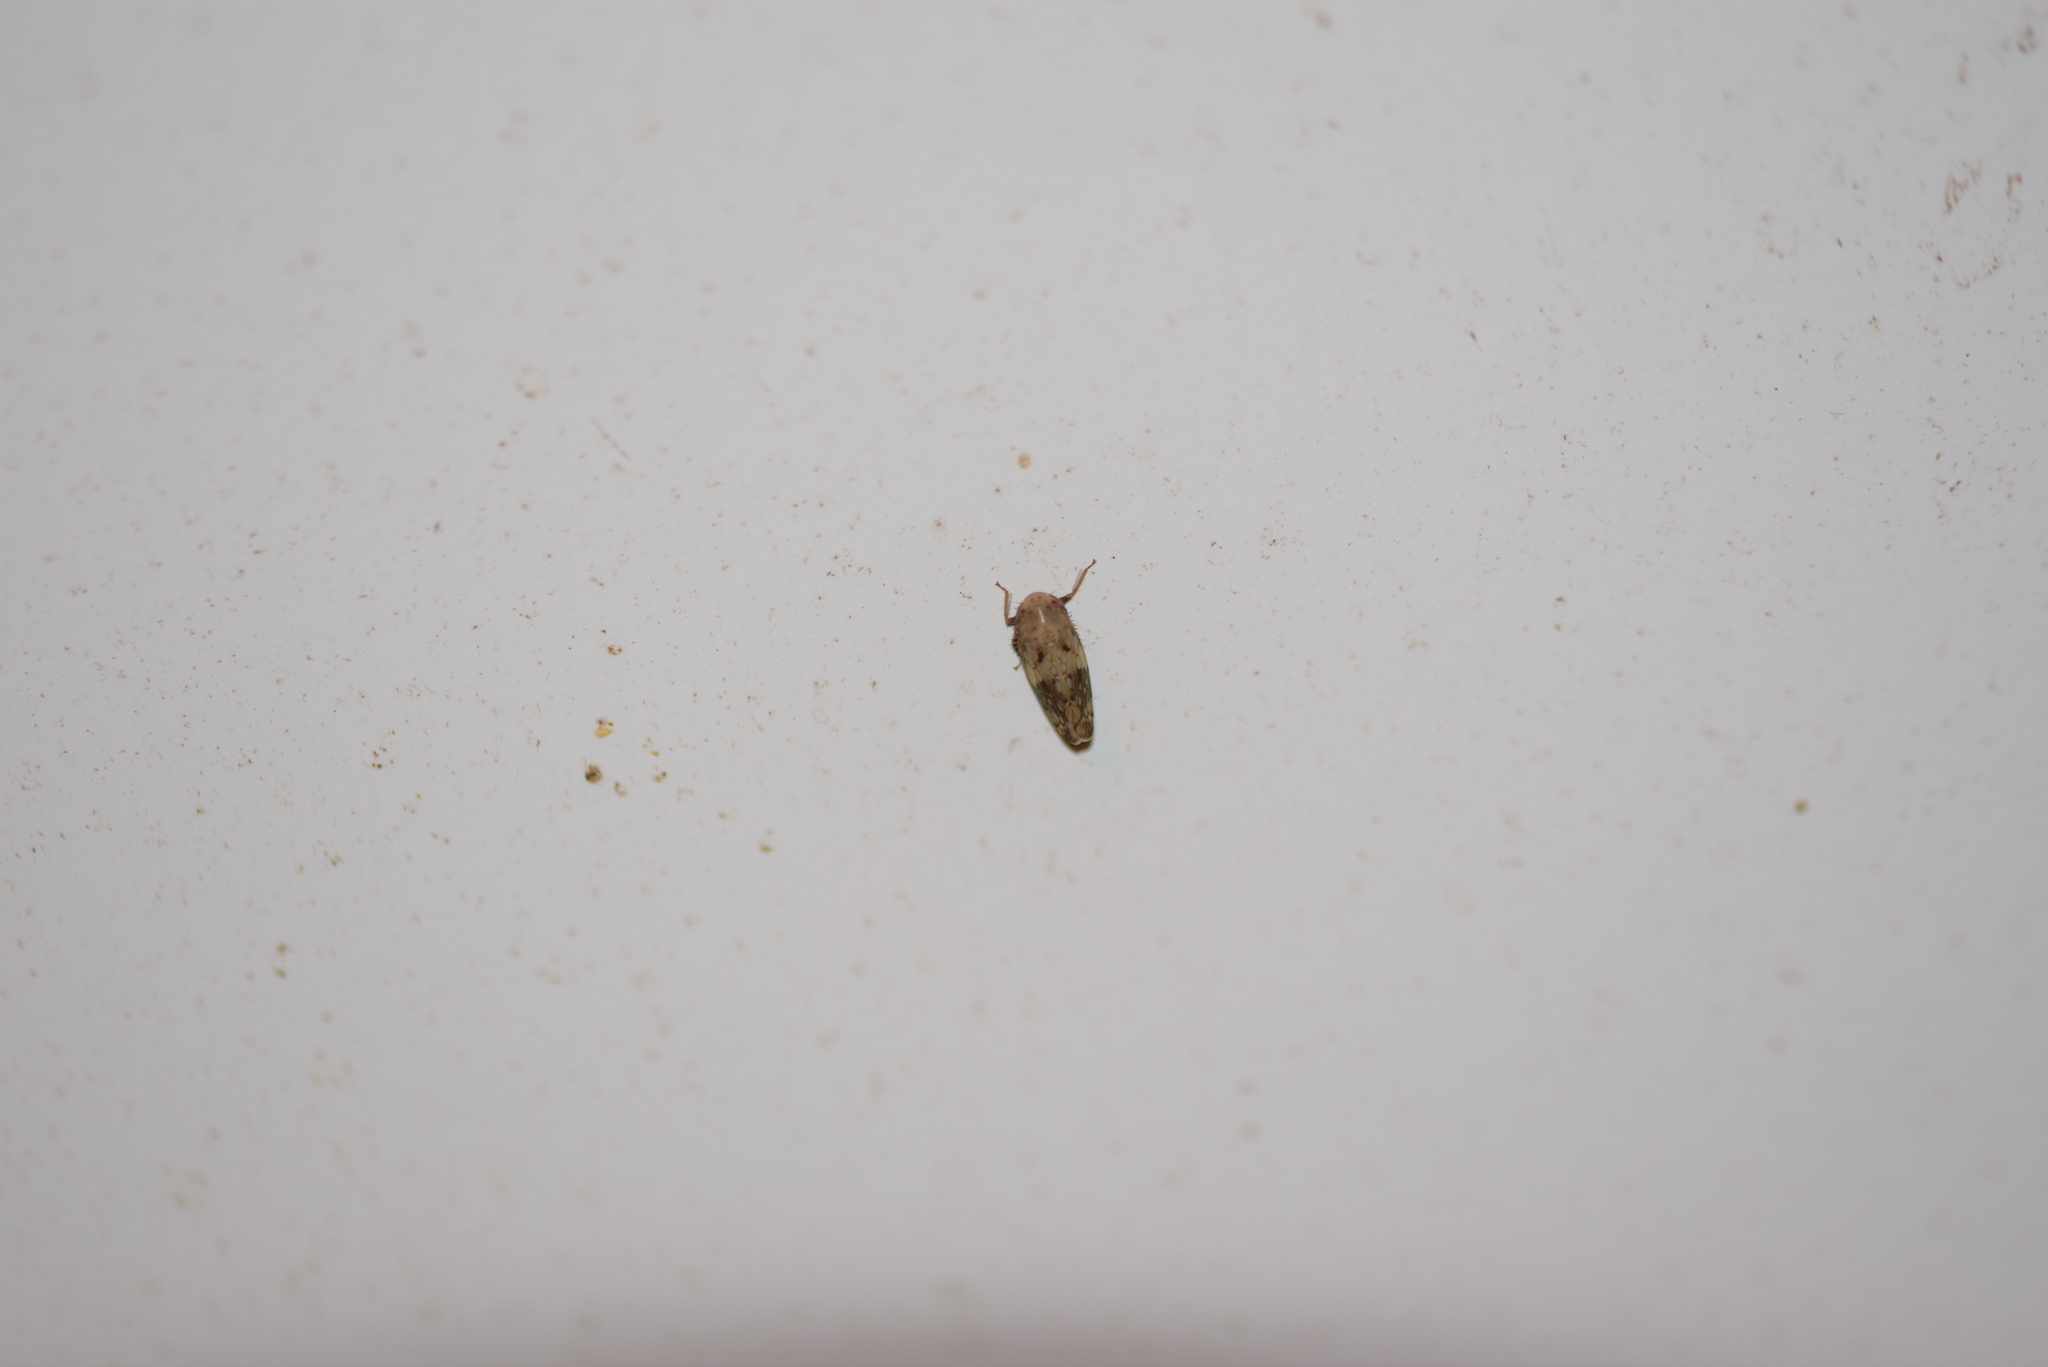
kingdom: Animalia
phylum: Arthropoda
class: Insecta
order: Hemiptera
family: Cicadellidae
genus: Menosoma
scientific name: Menosoma cinctum
